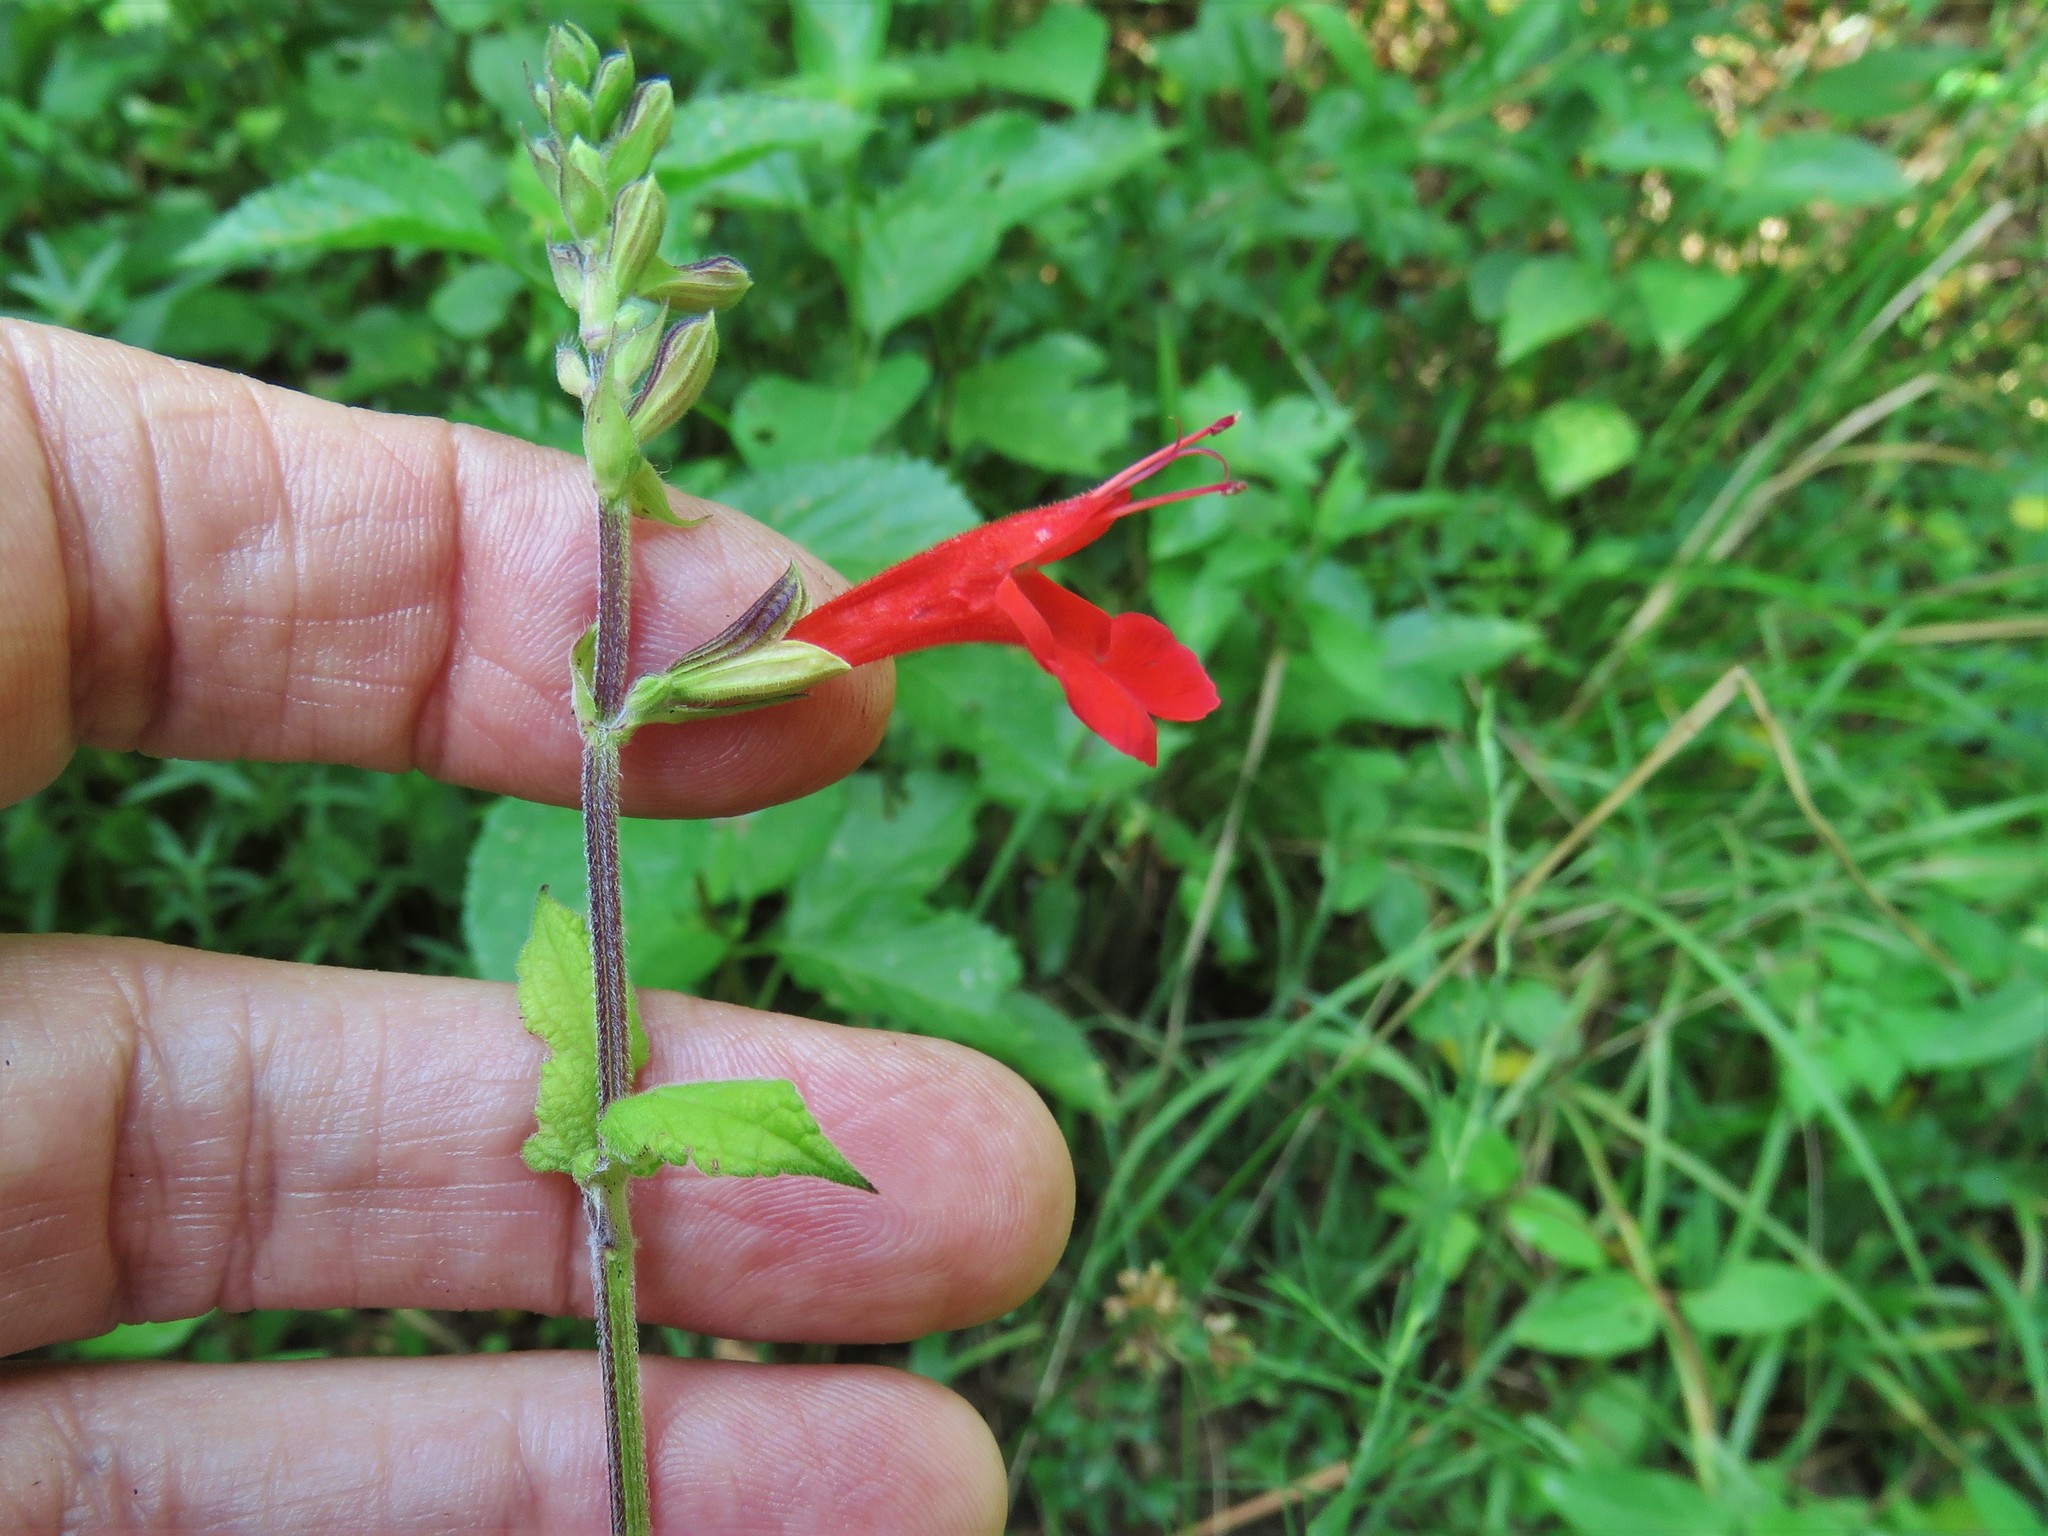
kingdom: Plantae
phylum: Tracheophyta
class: Magnoliopsida
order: Lamiales
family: Lamiaceae
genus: Salvia
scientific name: Salvia coccinea
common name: Blood sage
